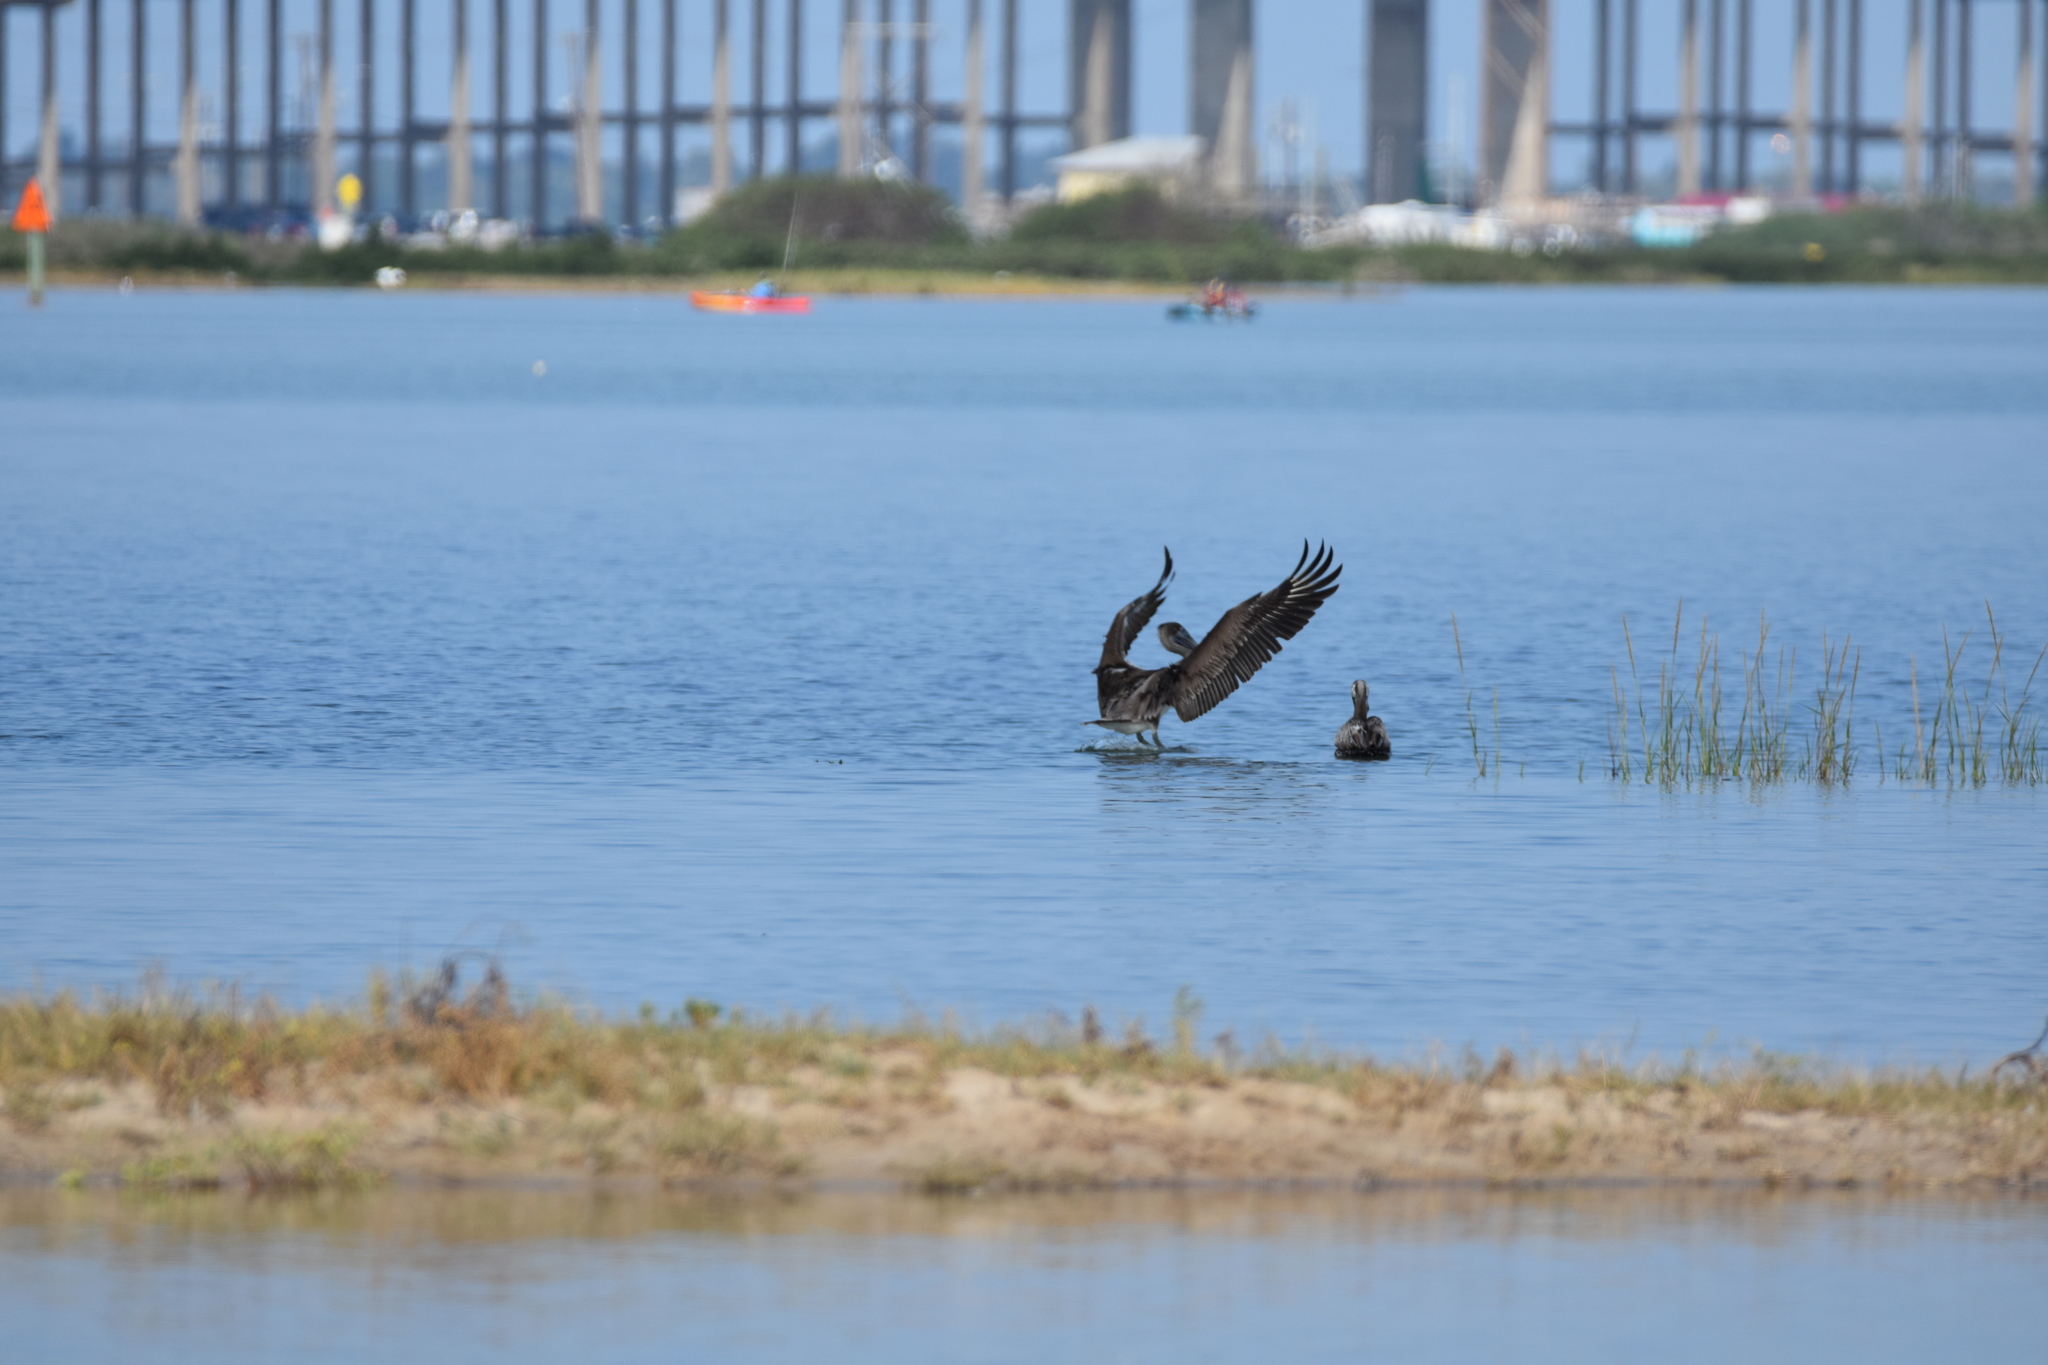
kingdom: Animalia
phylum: Chordata
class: Aves
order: Pelecaniformes
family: Pelecanidae
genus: Pelecanus
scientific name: Pelecanus occidentalis
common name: Brown pelican
